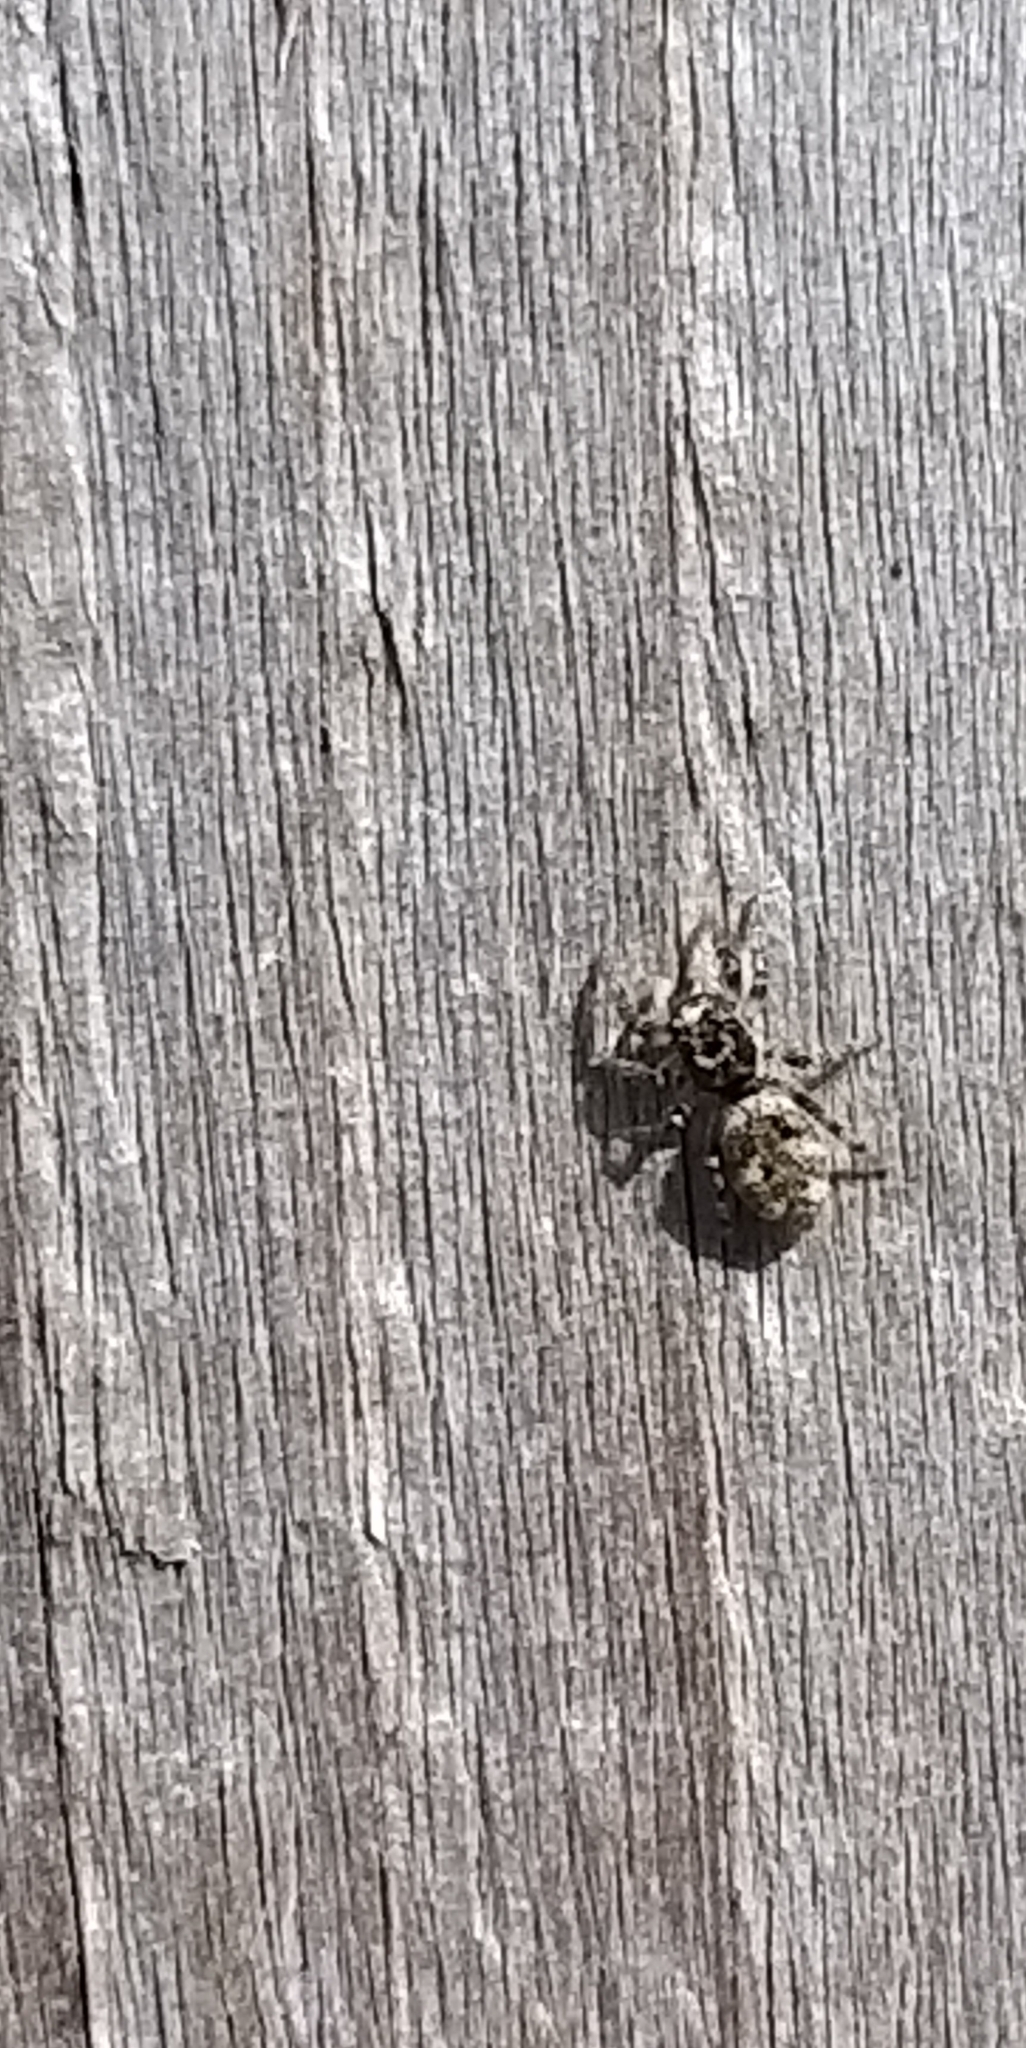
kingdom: Animalia
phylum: Arthropoda
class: Arachnida
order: Araneae
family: Salticidae
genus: Salticus
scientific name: Salticus scenicus
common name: Zebra jumper
